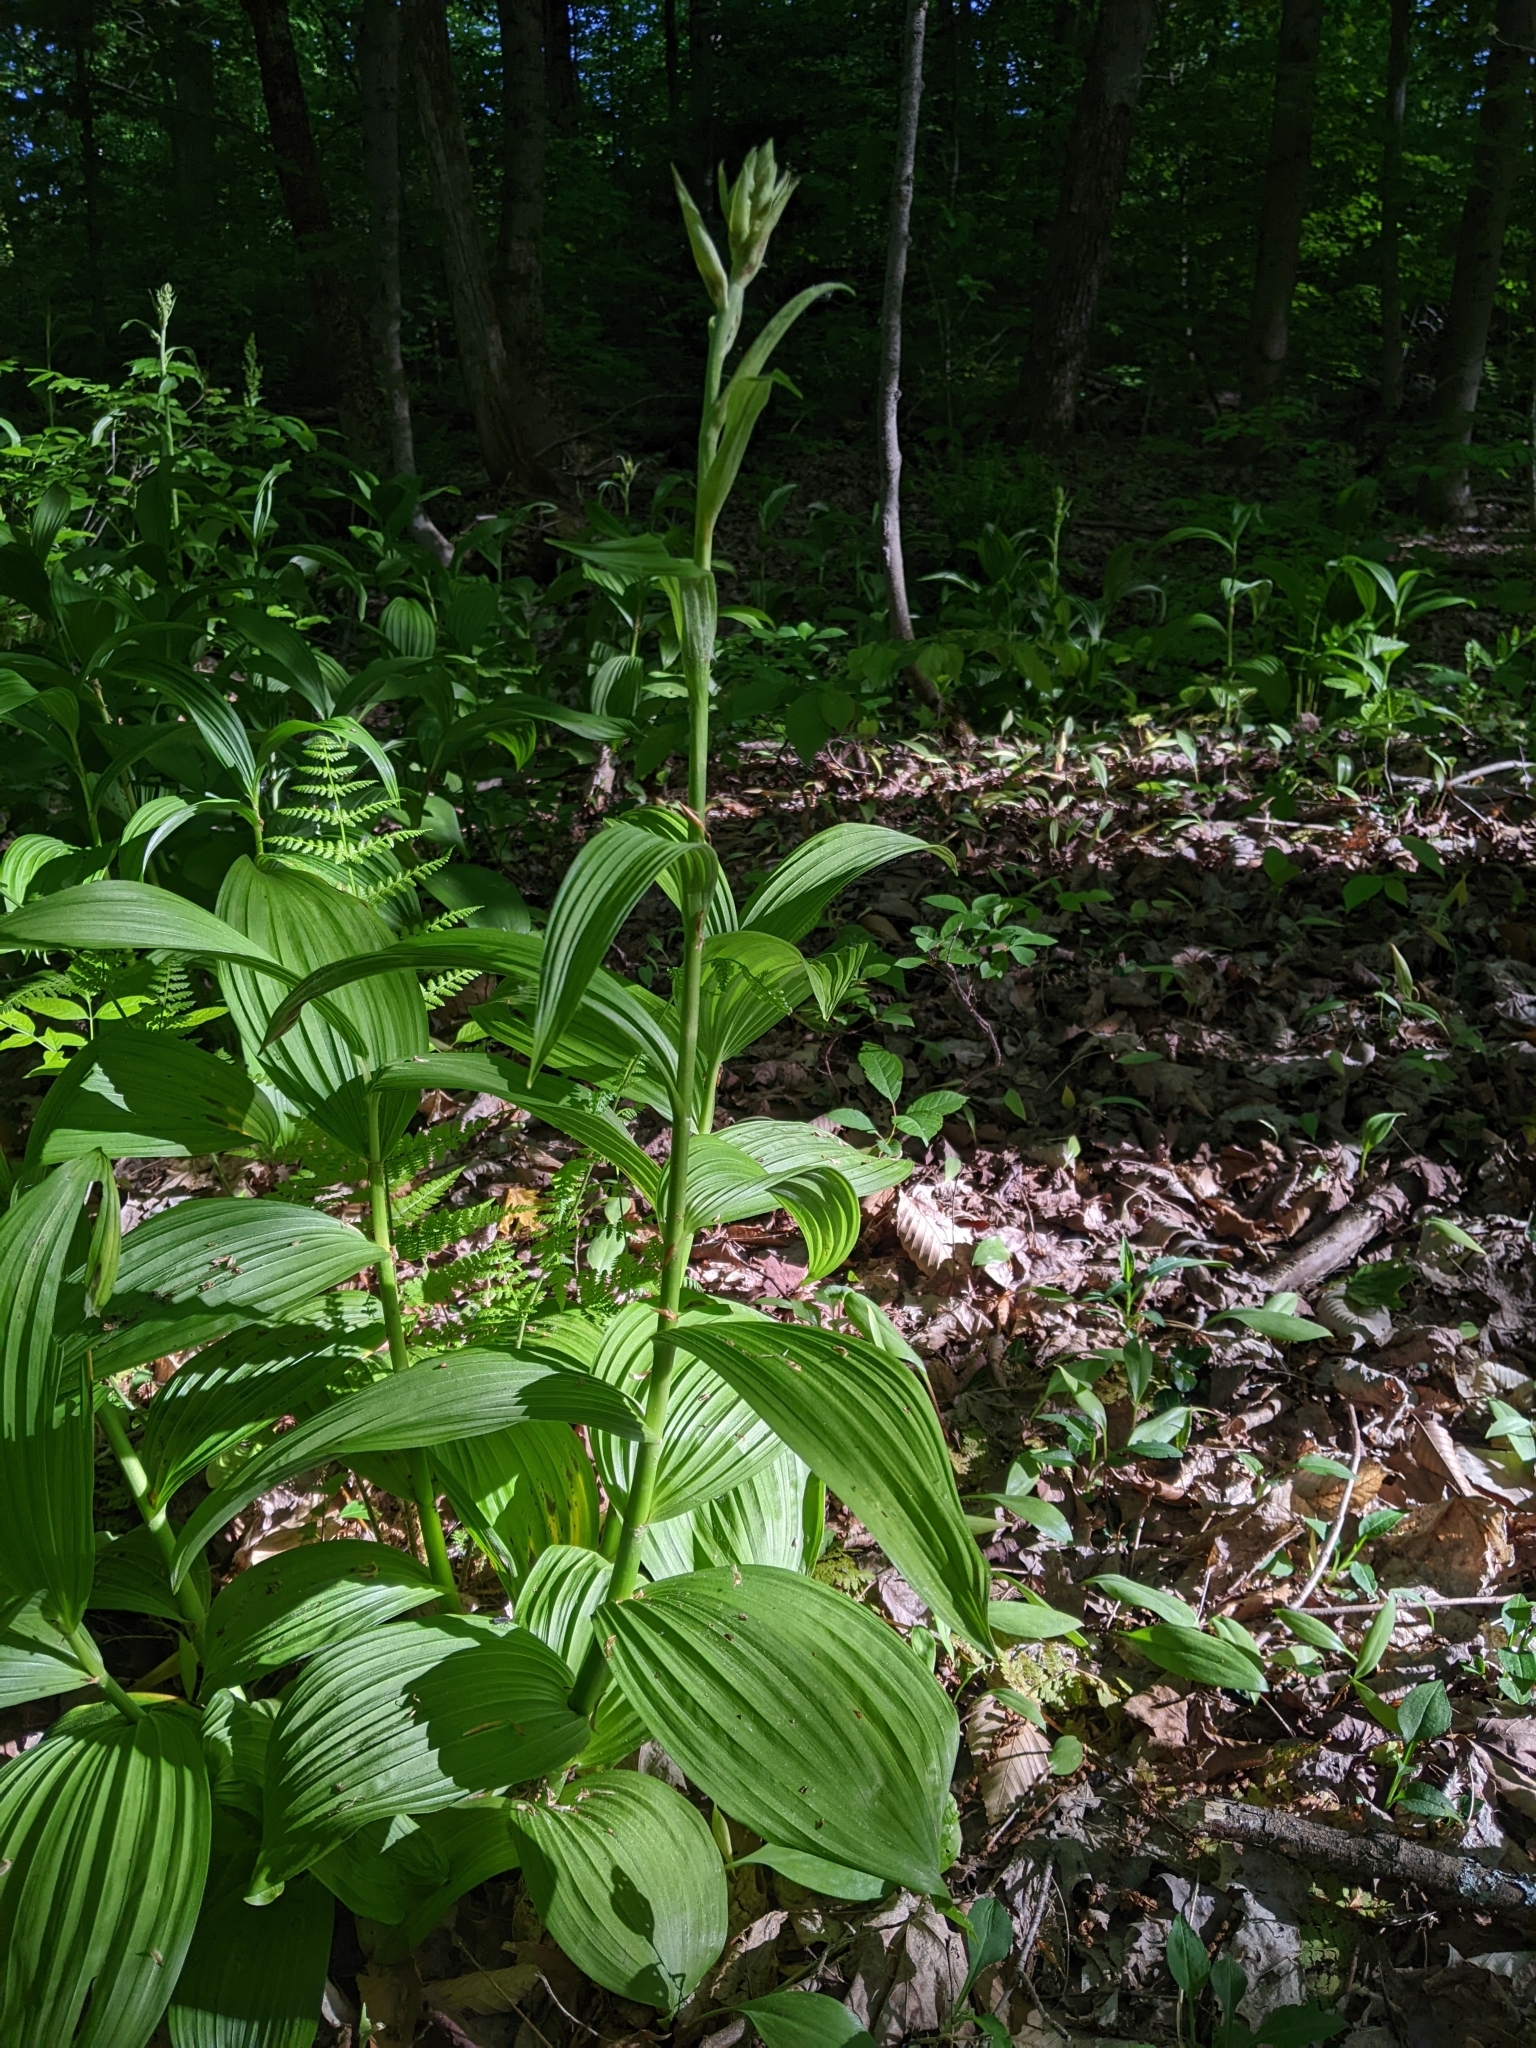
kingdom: Plantae
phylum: Tracheophyta
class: Liliopsida
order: Liliales
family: Melanthiaceae
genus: Veratrum
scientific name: Veratrum viride
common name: American false hellebore
